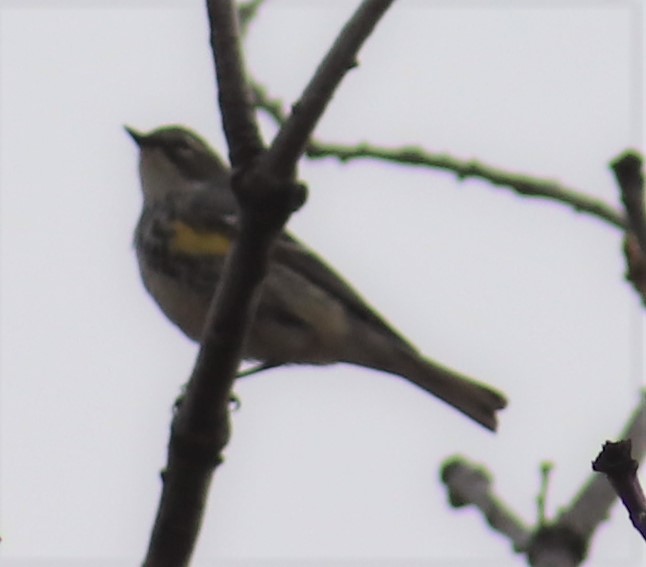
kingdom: Animalia
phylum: Chordata
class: Aves
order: Passeriformes
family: Parulidae
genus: Setophaga
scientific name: Setophaga coronata
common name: Myrtle warbler
